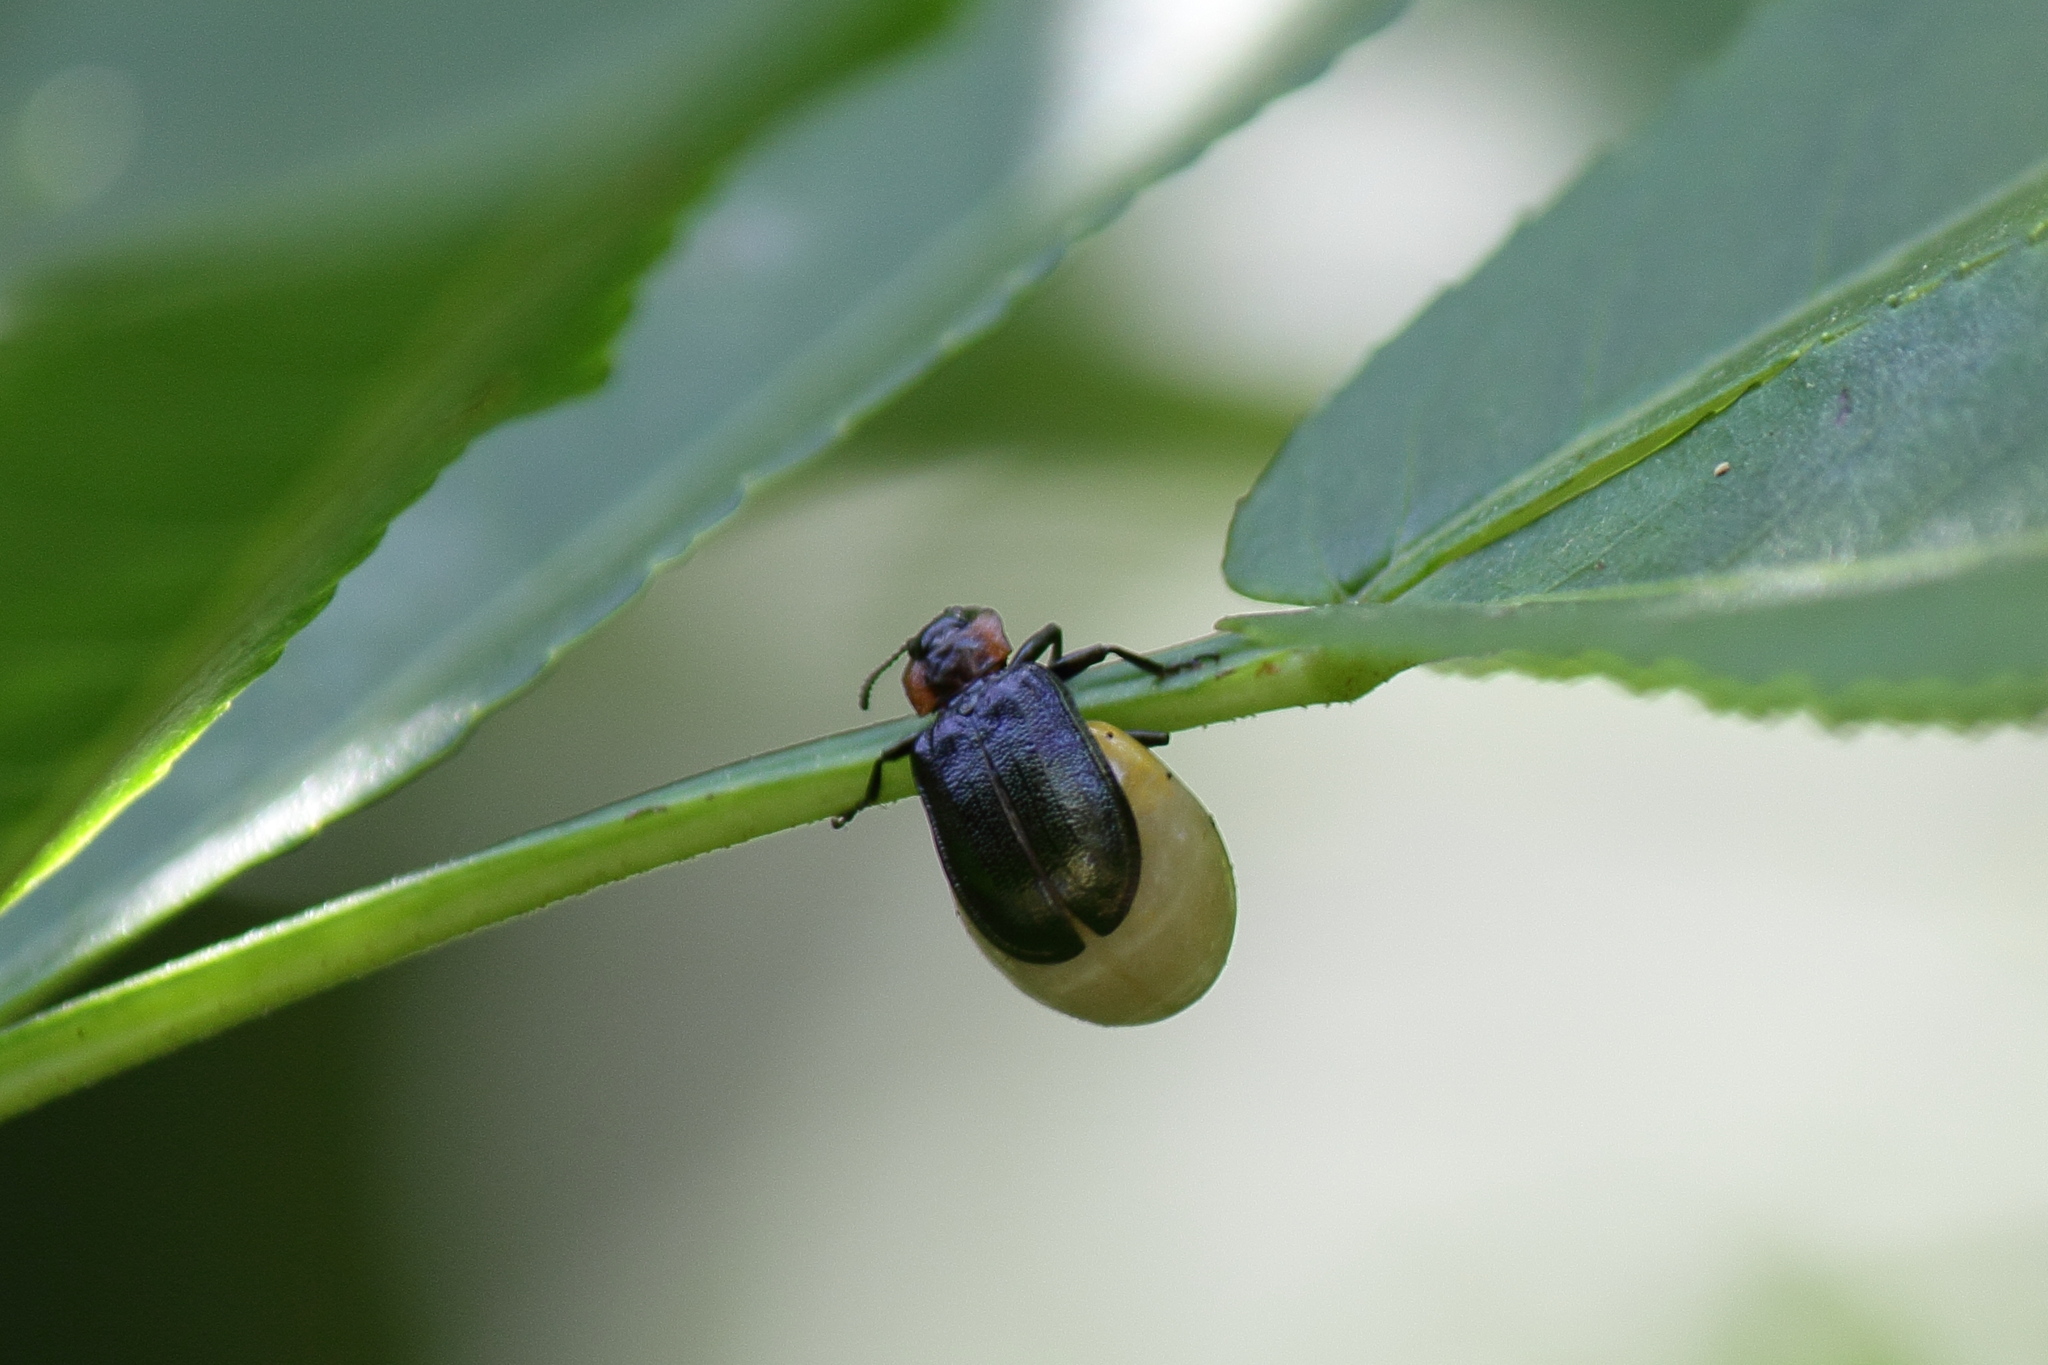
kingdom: Animalia
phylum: Arthropoda
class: Insecta
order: Coleoptera
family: Chrysomelidae
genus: Gastrolina
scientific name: Gastrolina depressa
